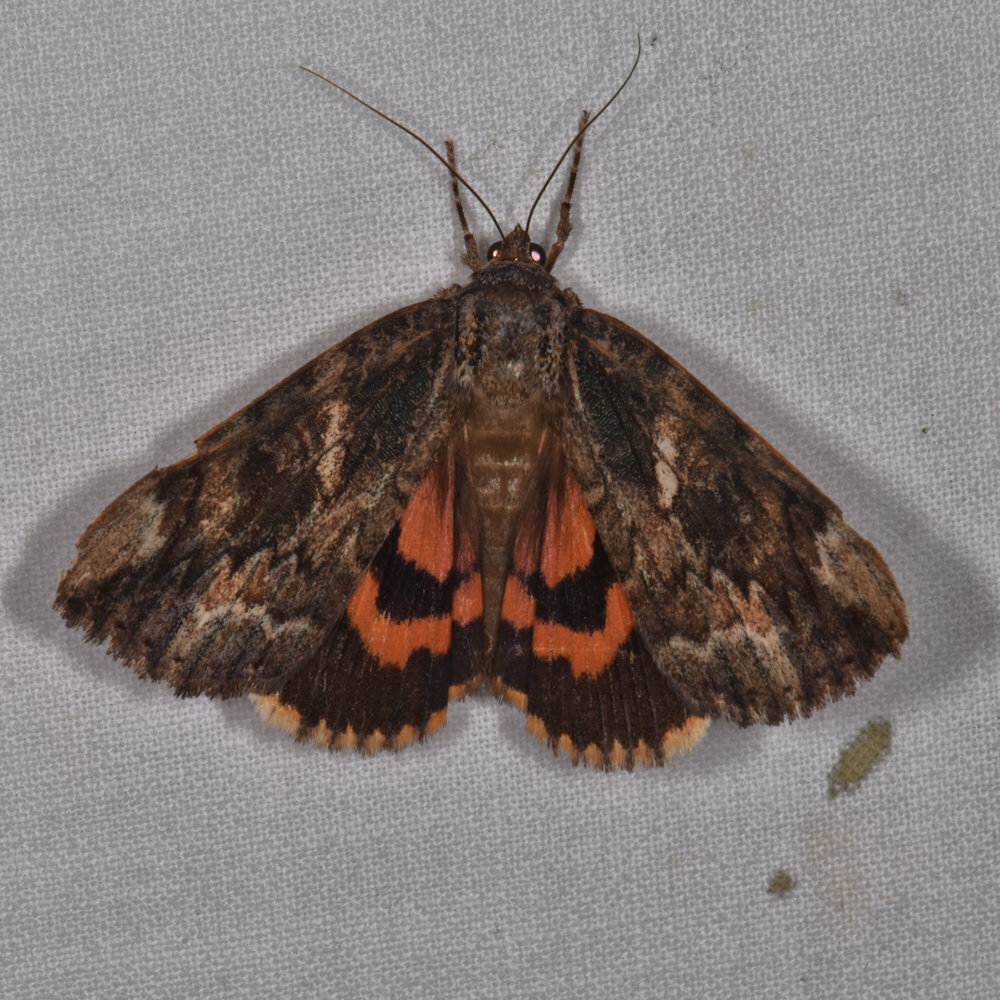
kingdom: Animalia
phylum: Arthropoda
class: Insecta
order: Lepidoptera
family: Erebidae
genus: Catocala
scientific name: Catocala innubens
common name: Betrothed underwing
